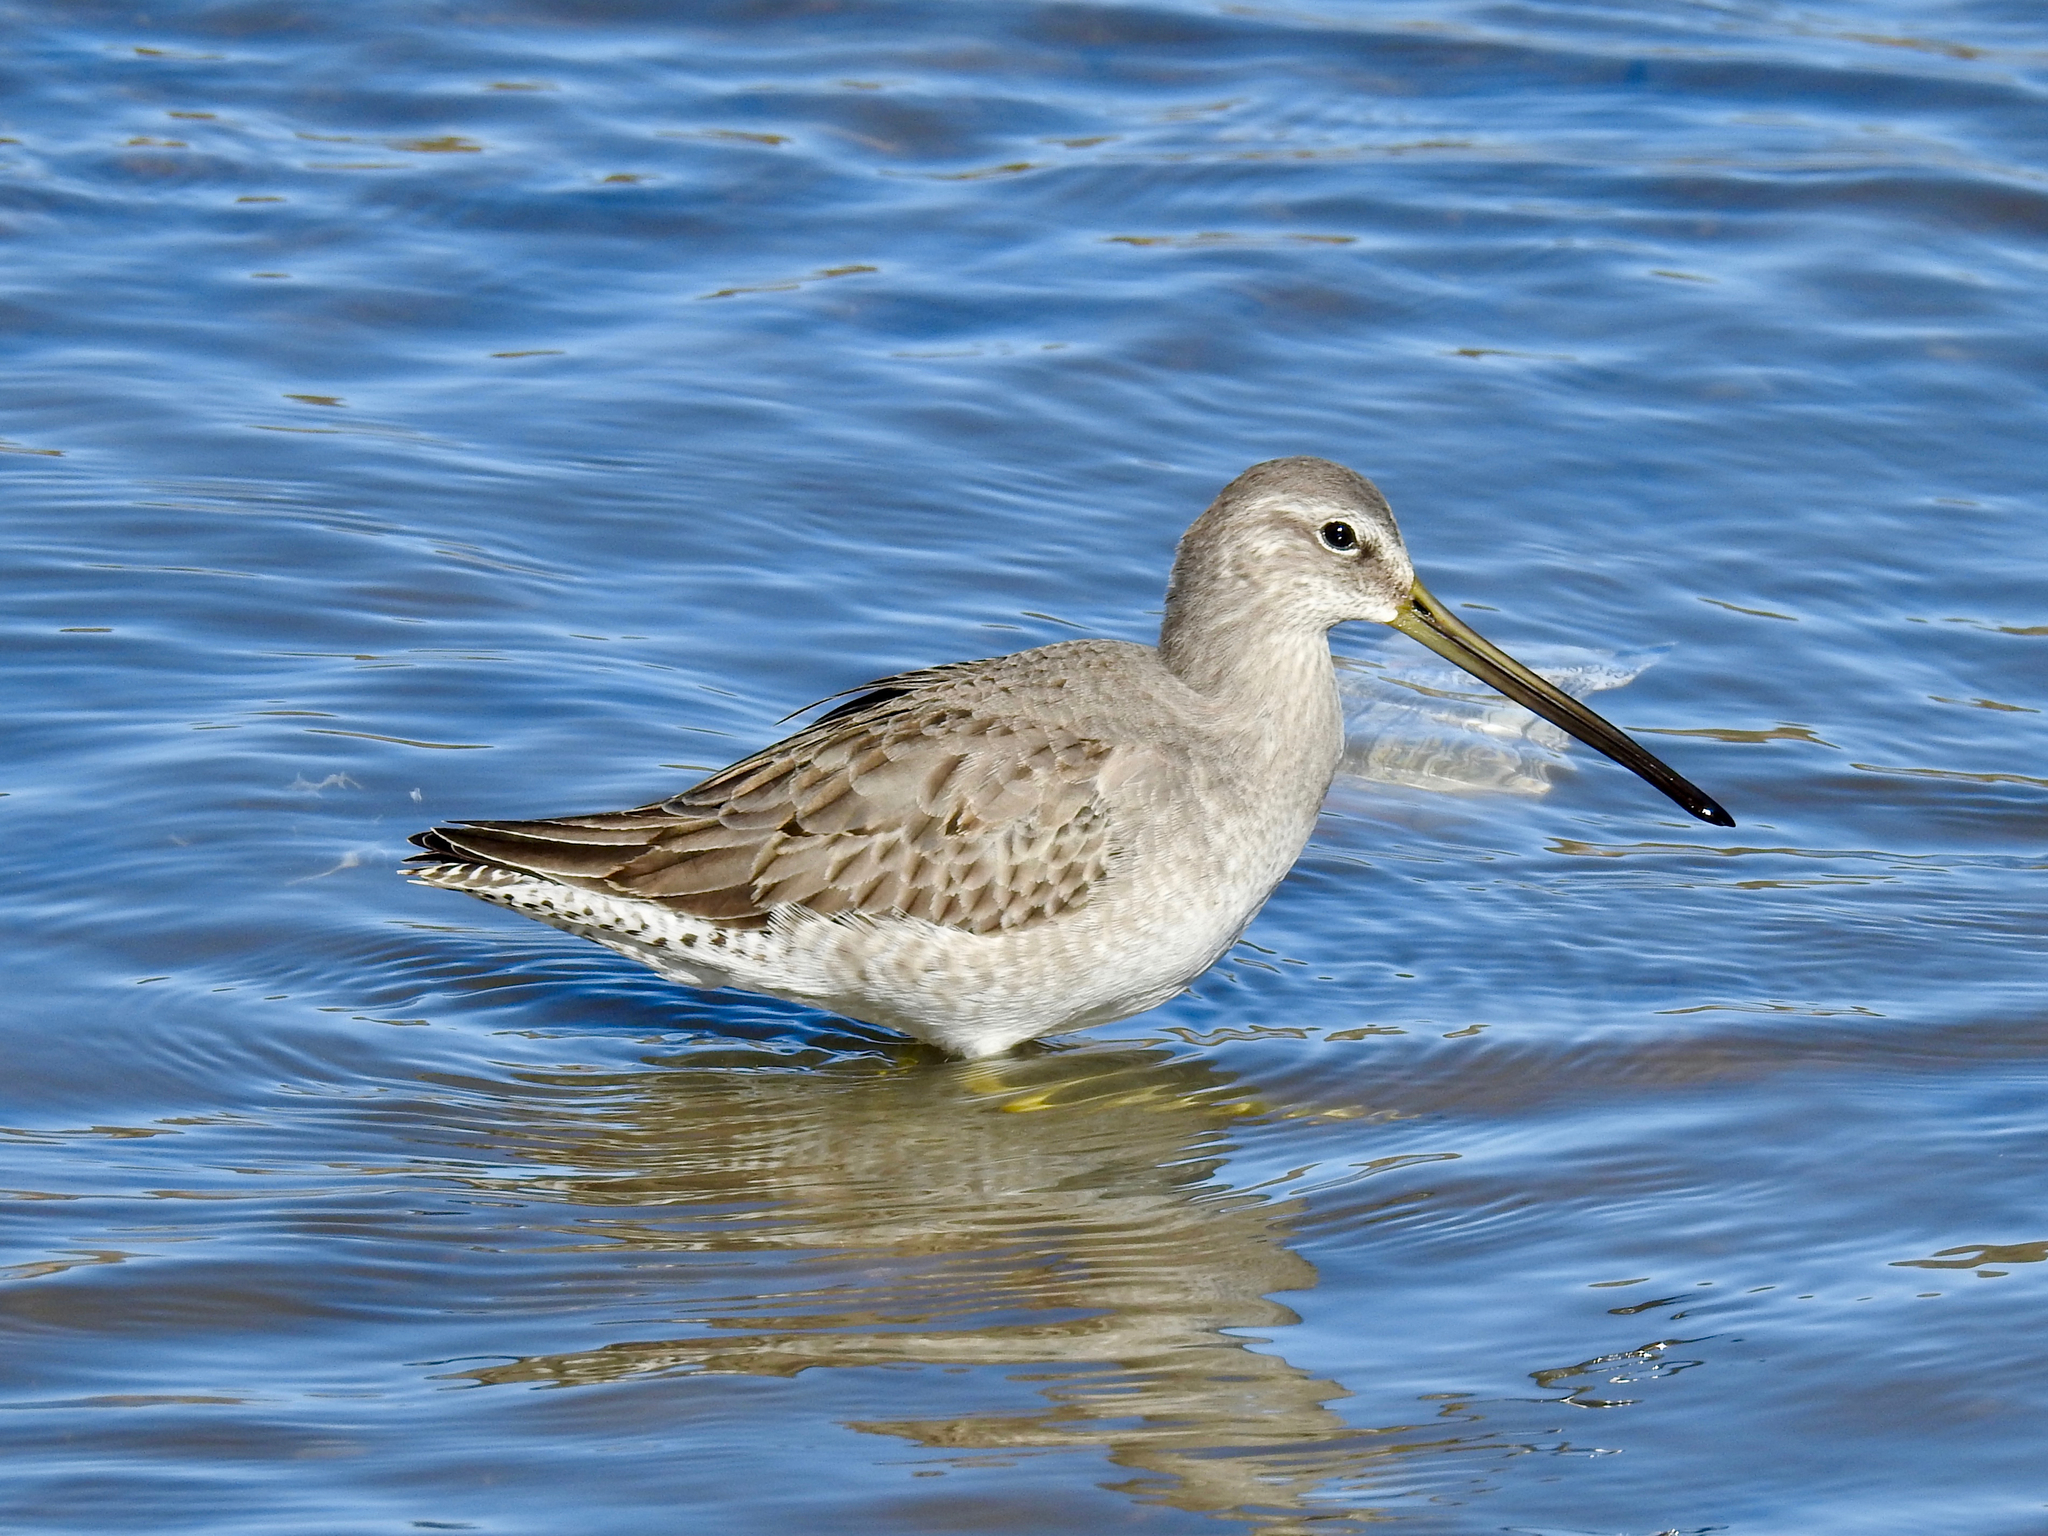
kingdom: Animalia
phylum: Chordata
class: Aves
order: Charadriiformes
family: Scolopacidae
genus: Limnodromus
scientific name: Limnodromus scolopaceus
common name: Long-billed dowitcher
